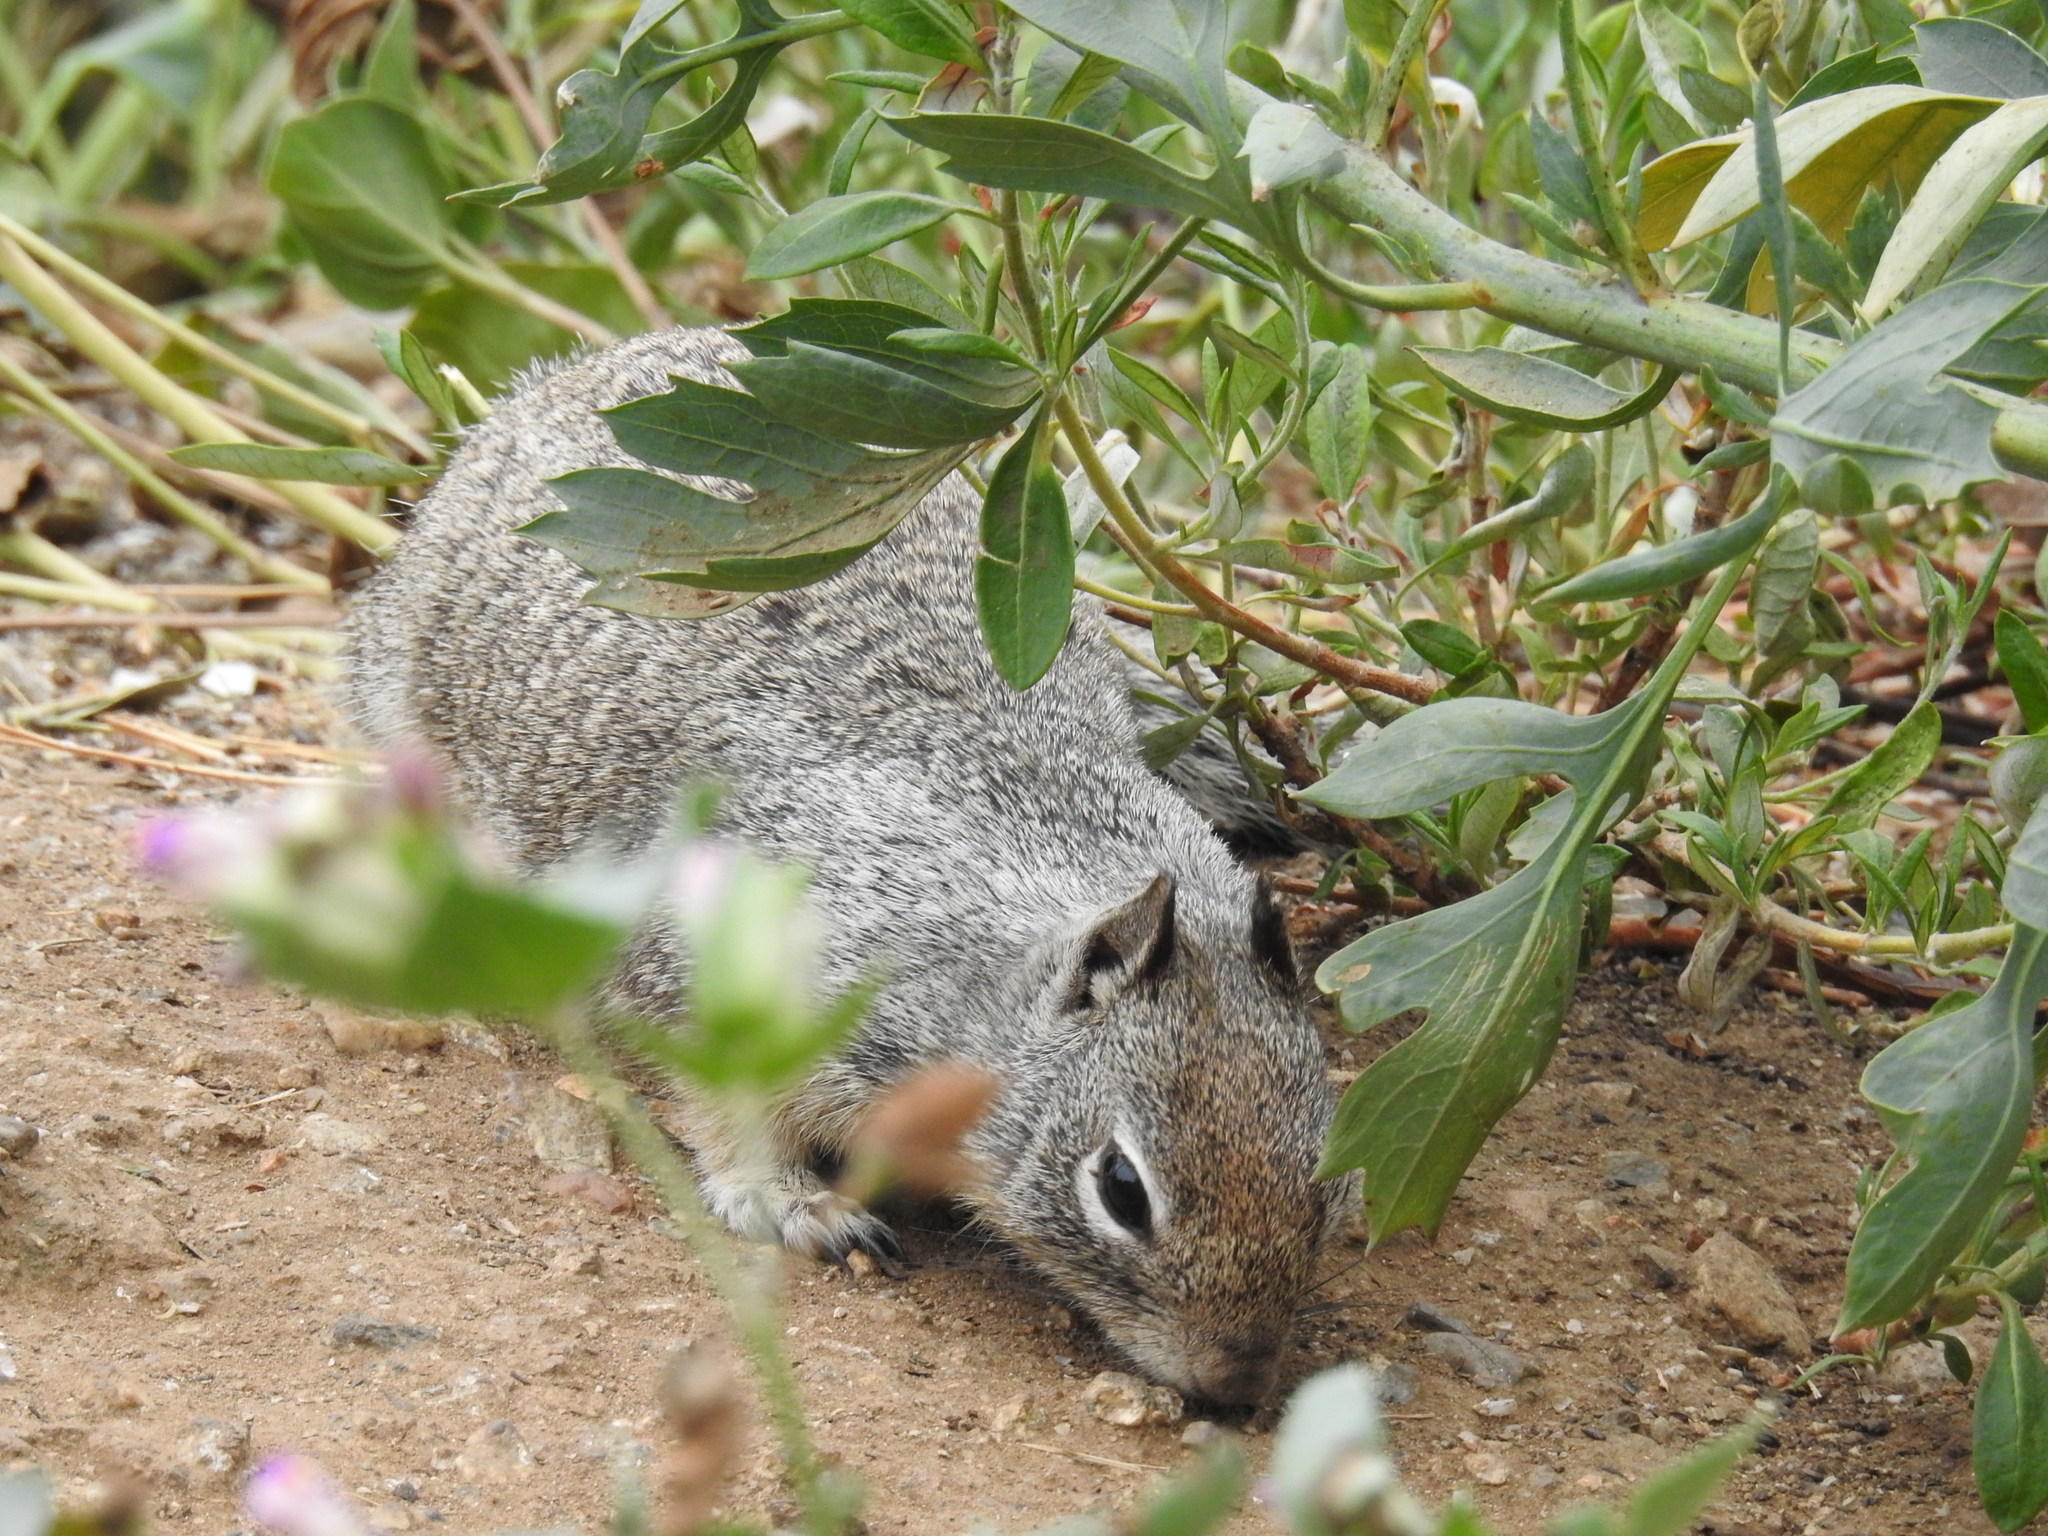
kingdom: Animalia
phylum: Chordata
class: Mammalia
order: Rodentia
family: Sciuridae
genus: Otospermophilus
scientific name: Otospermophilus beecheyi
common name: California ground squirrel
